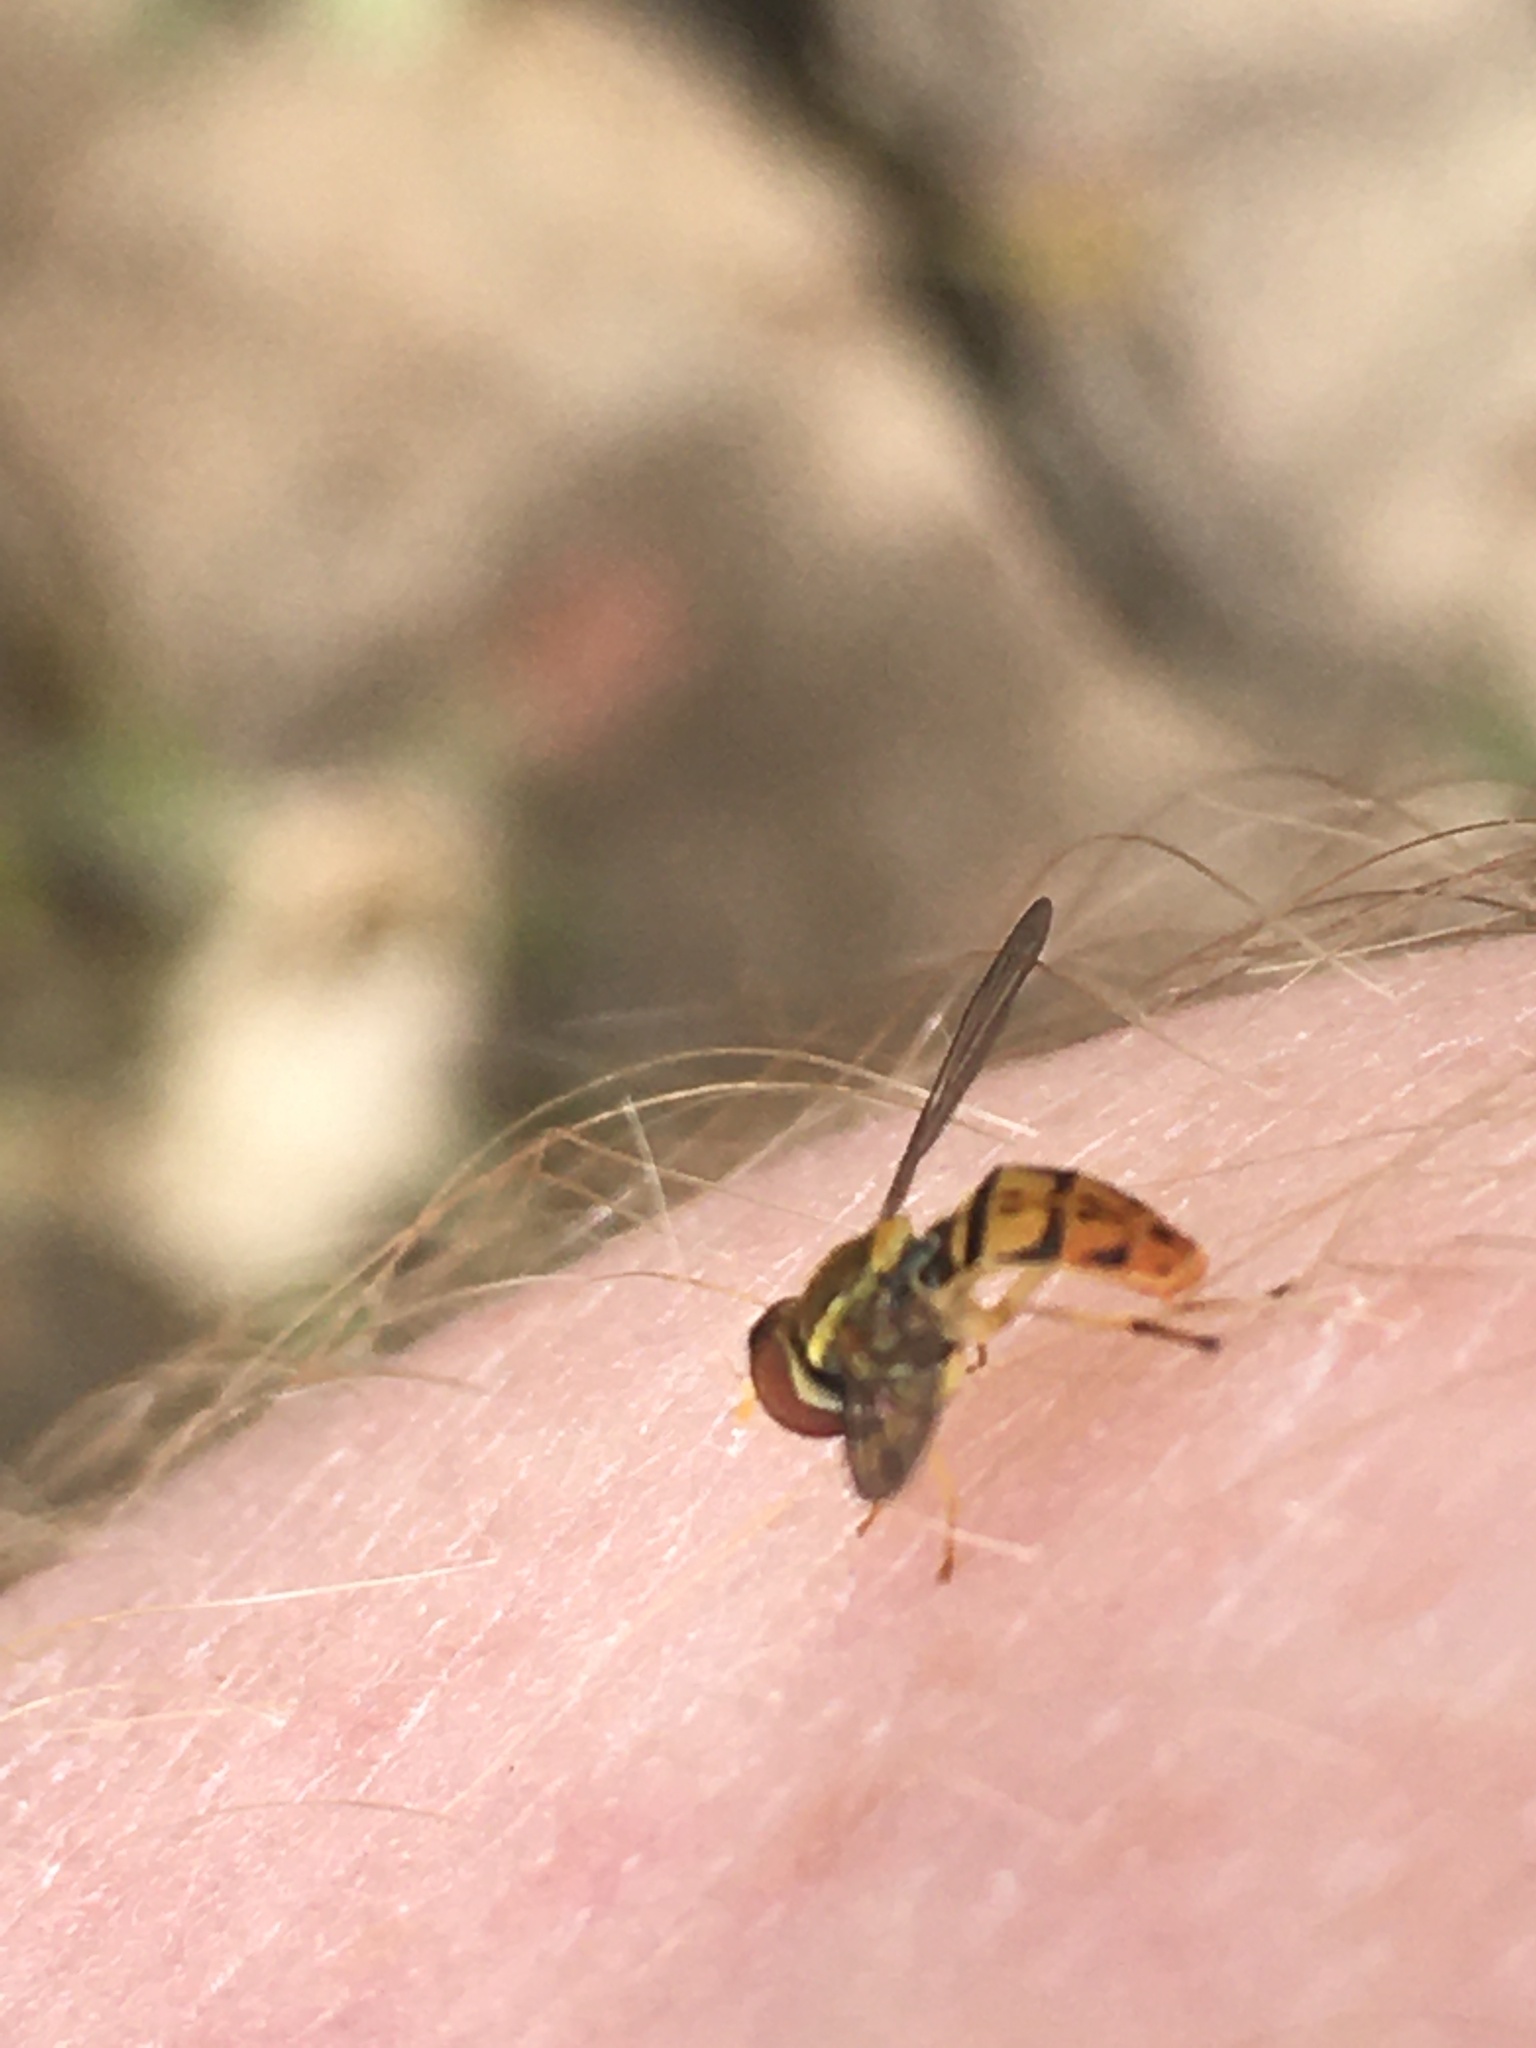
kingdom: Animalia
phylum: Arthropoda
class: Insecta
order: Diptera
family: Syrphidae
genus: Toxomerus
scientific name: Toxomerus marginatus
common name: Syrphid fly
